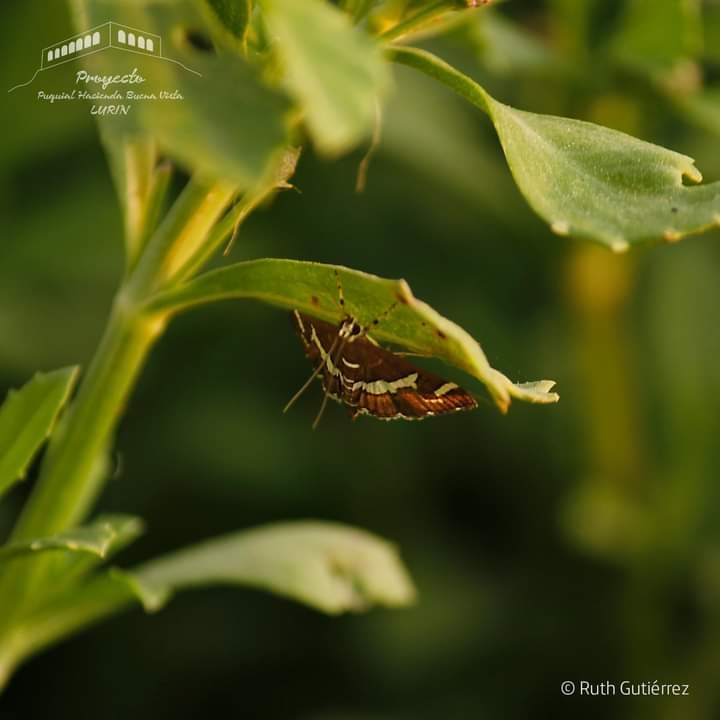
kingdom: Animalia
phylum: Arthropoda
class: Insecta
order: Lepidoptera
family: Crambidae
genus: Spoladea
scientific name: Spoladea recurvalis
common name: Beet webworm moth
